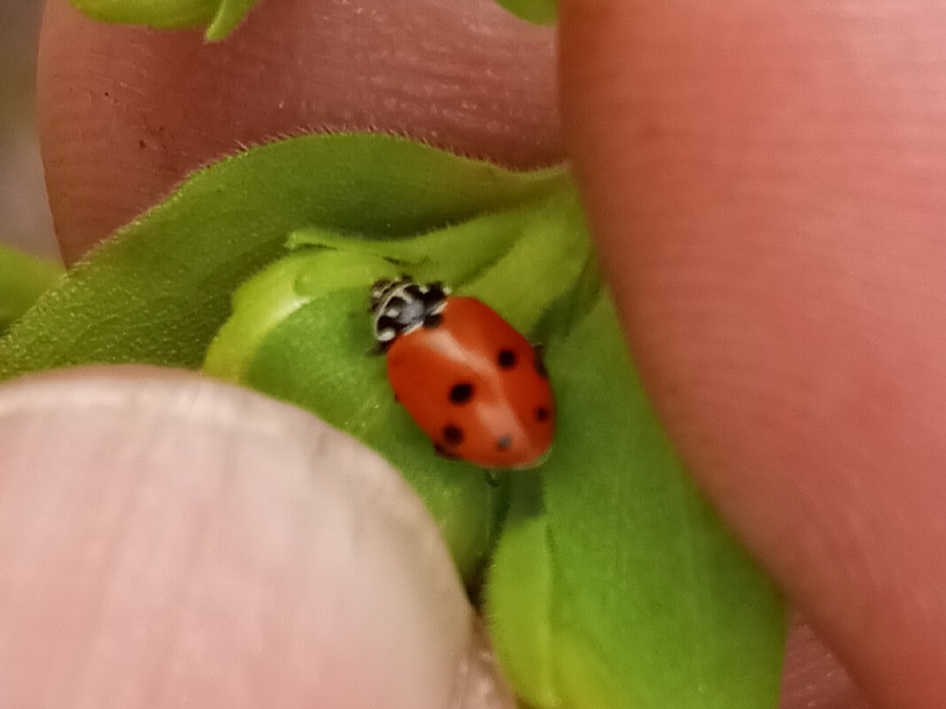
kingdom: Animalia
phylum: Arthropoda
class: Insecta
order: Coleoptera
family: Coccinellidae
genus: Hippodamia
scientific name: Hippodamia variegata
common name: Ladybird beetle
